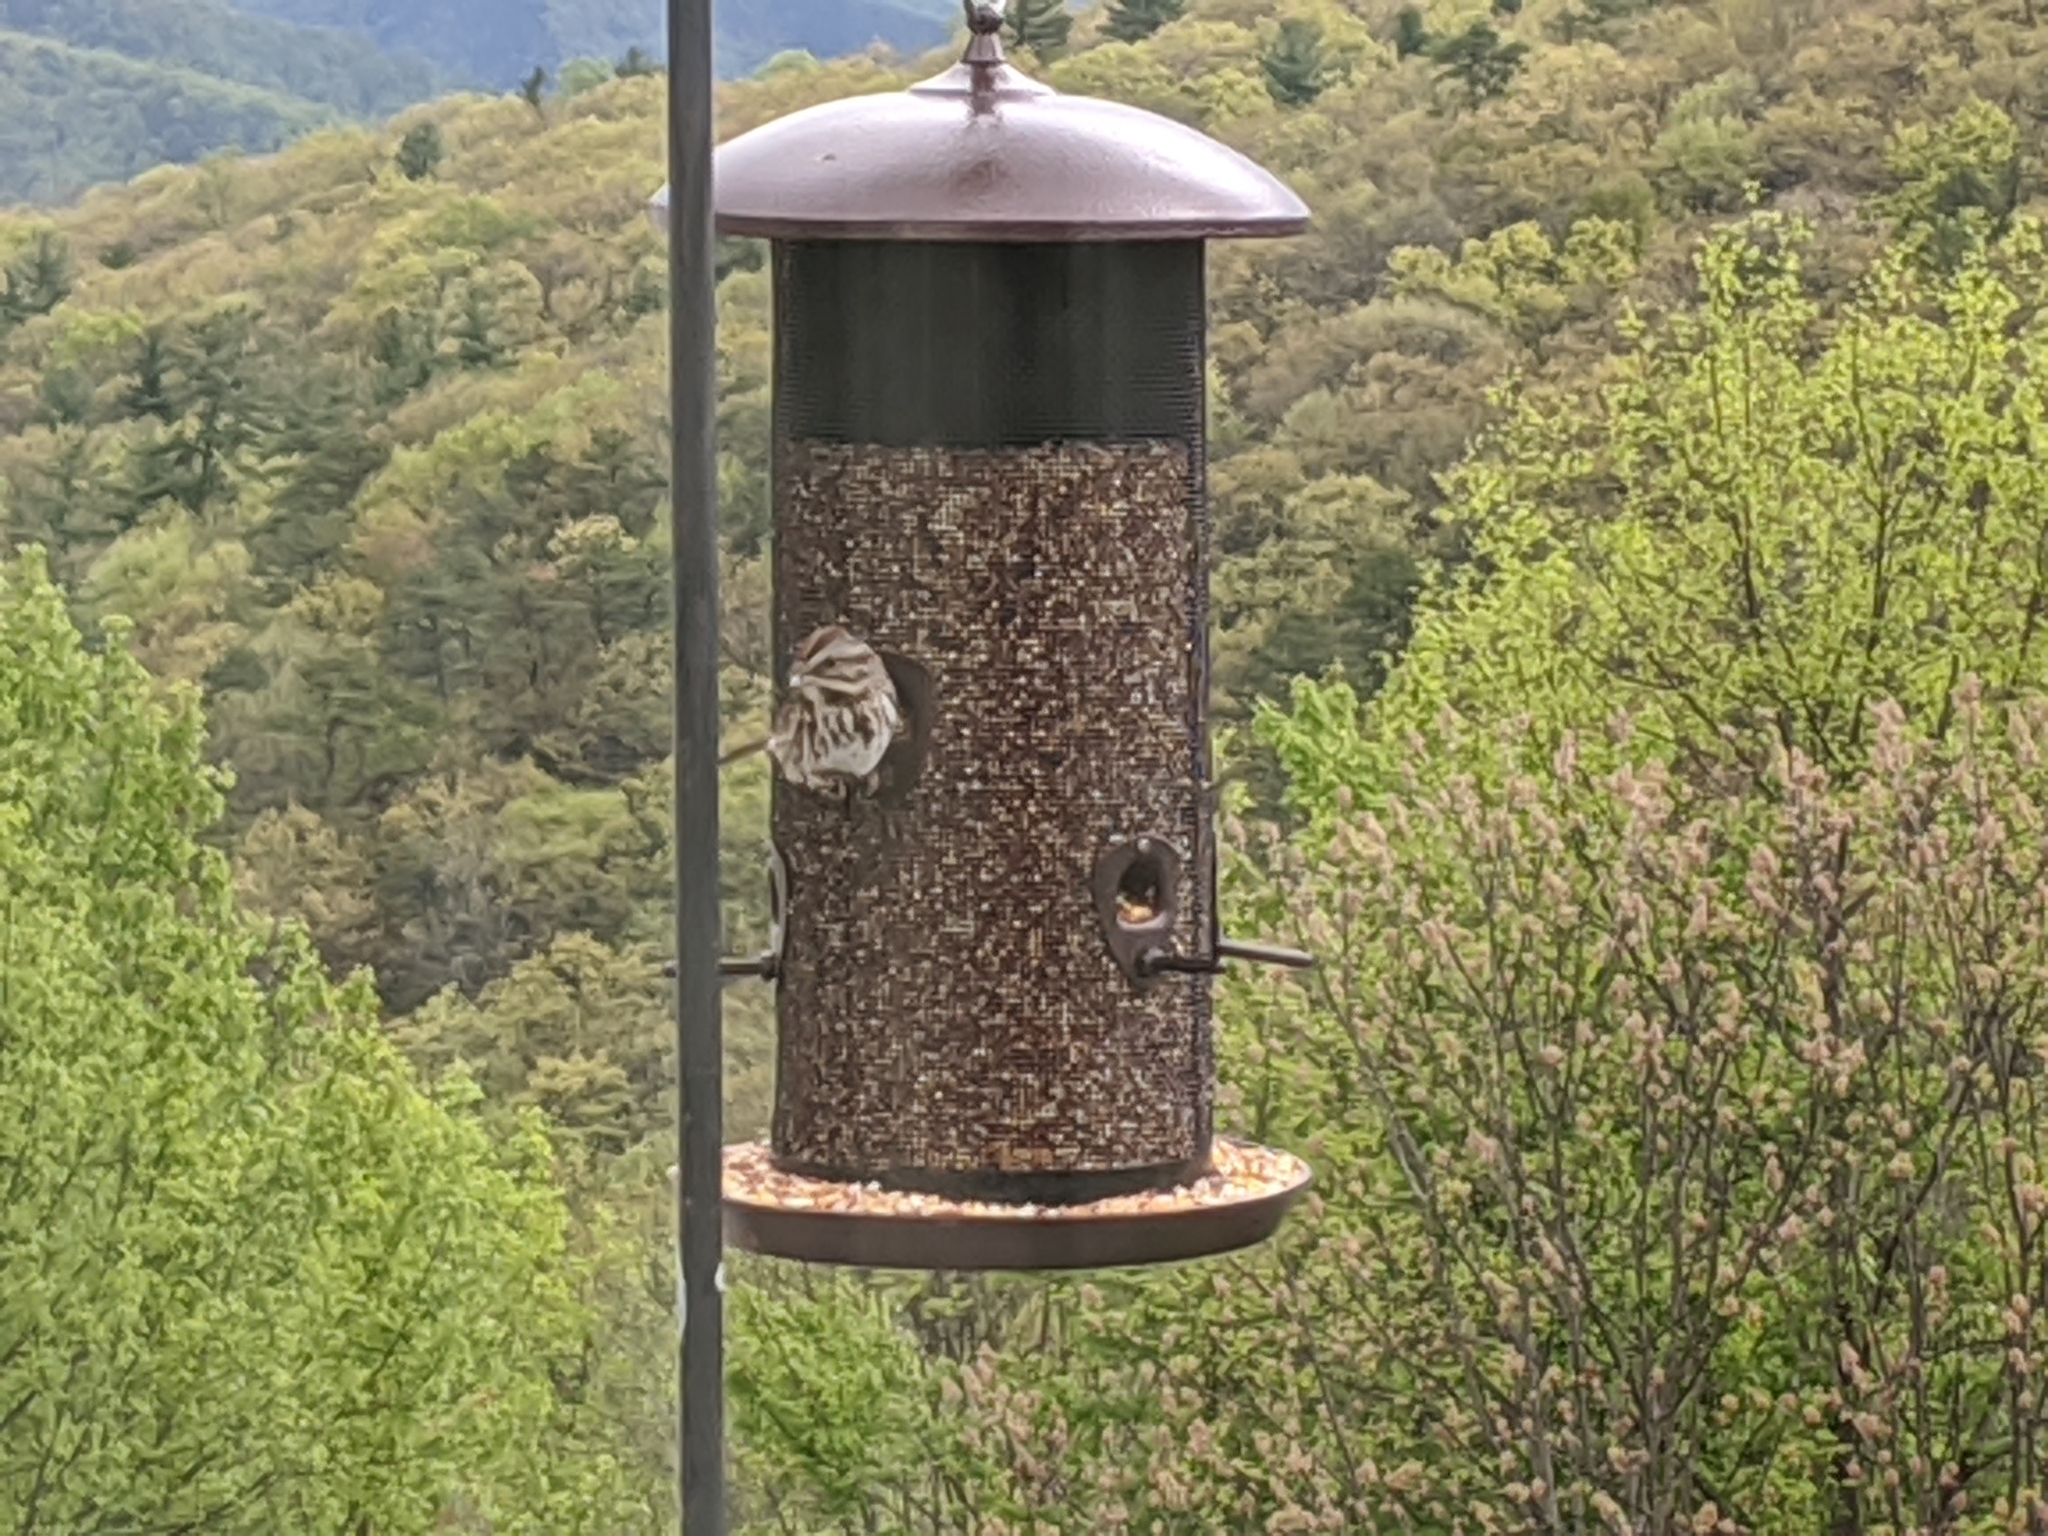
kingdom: Animalia
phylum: Chordata
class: Aves
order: Passeriformes
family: Passerellidae
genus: Melospiza
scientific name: Melospiza melodia
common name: Song sparrow
